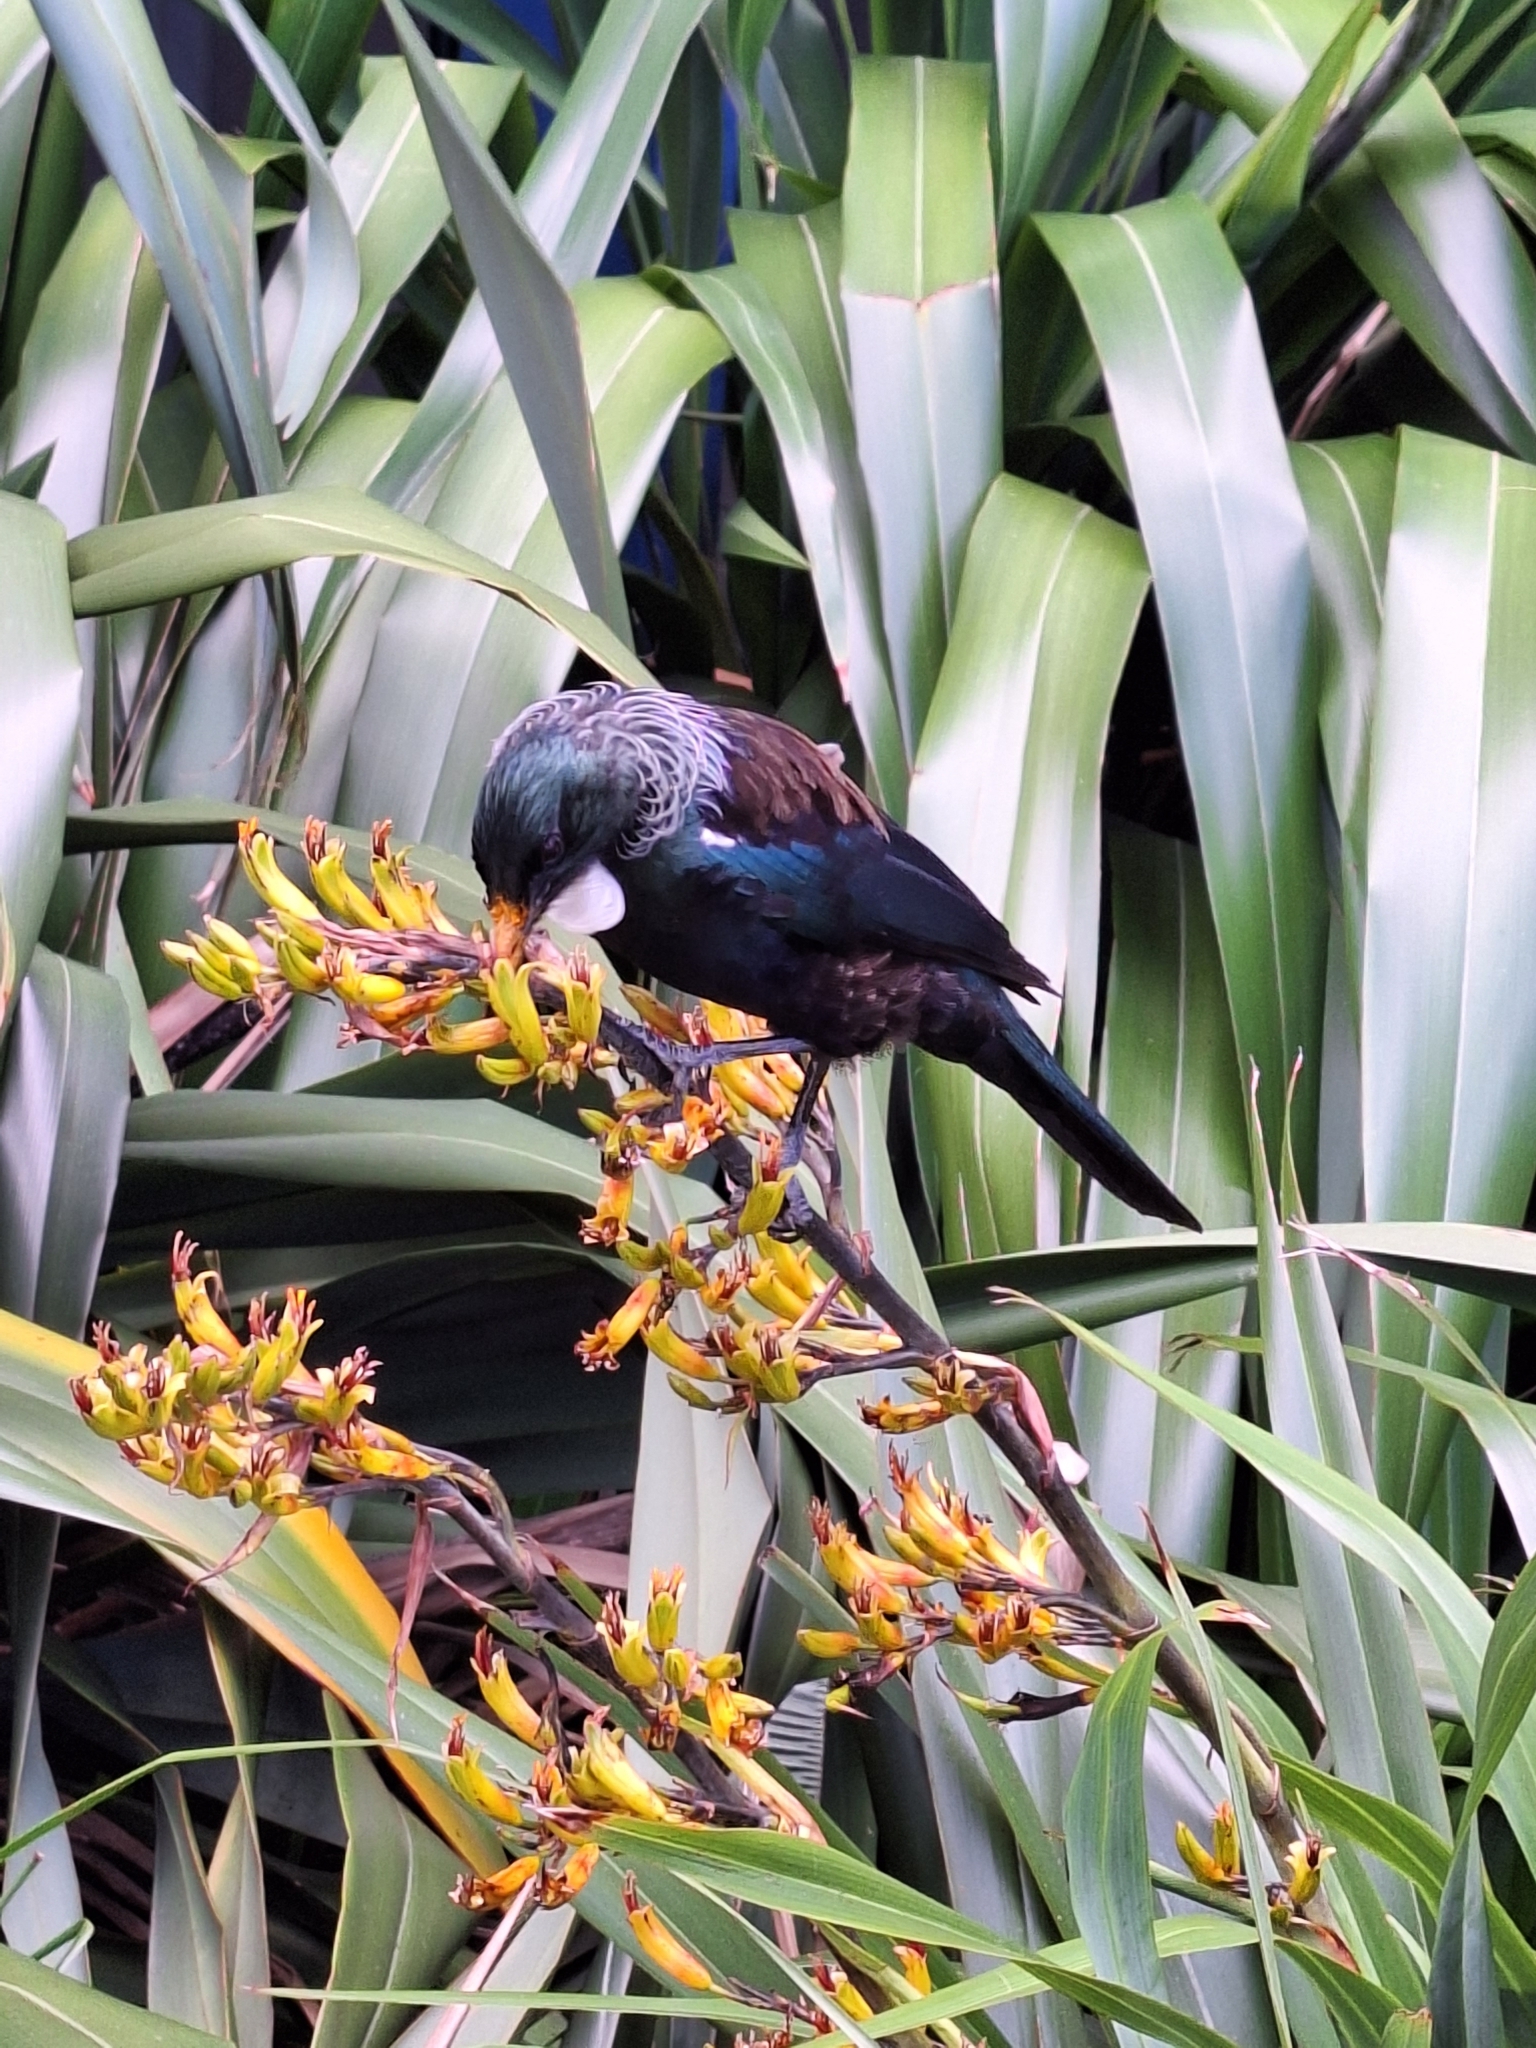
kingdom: Animalia
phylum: Chordata
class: Aves
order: Passeriformes
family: Meliphagidae
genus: Prosthemadera
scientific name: Prosthemadera novaeseelandiae
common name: Tui
